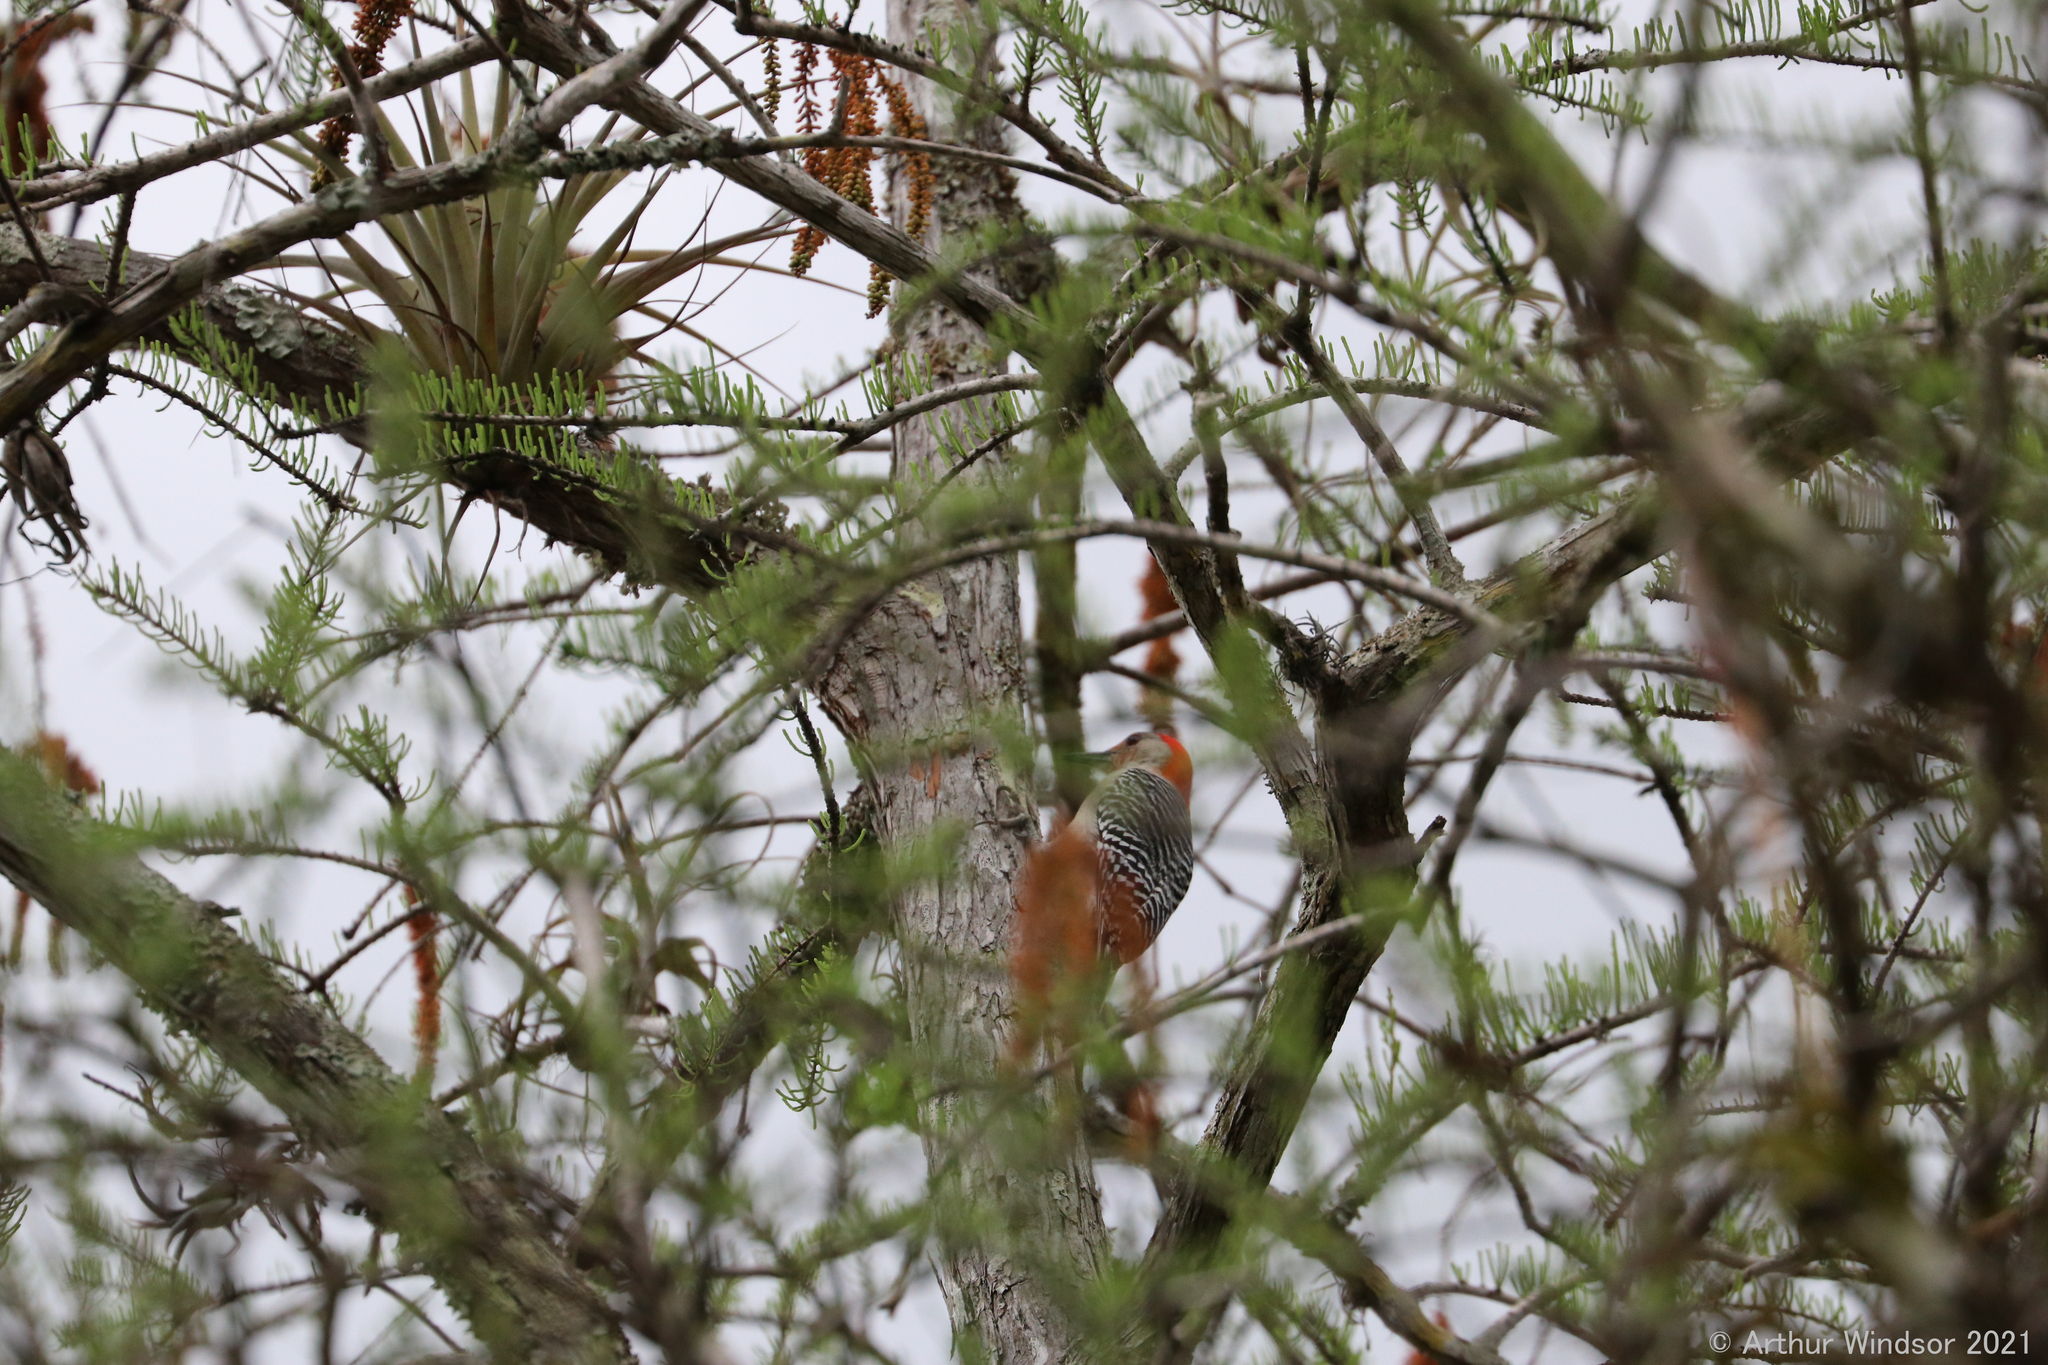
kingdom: Animalia
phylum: Chordata
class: Aves
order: Piciformes
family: Picidae
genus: Melanerpes
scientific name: Melanerpes carolinus
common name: Red-bellied woodpecker
